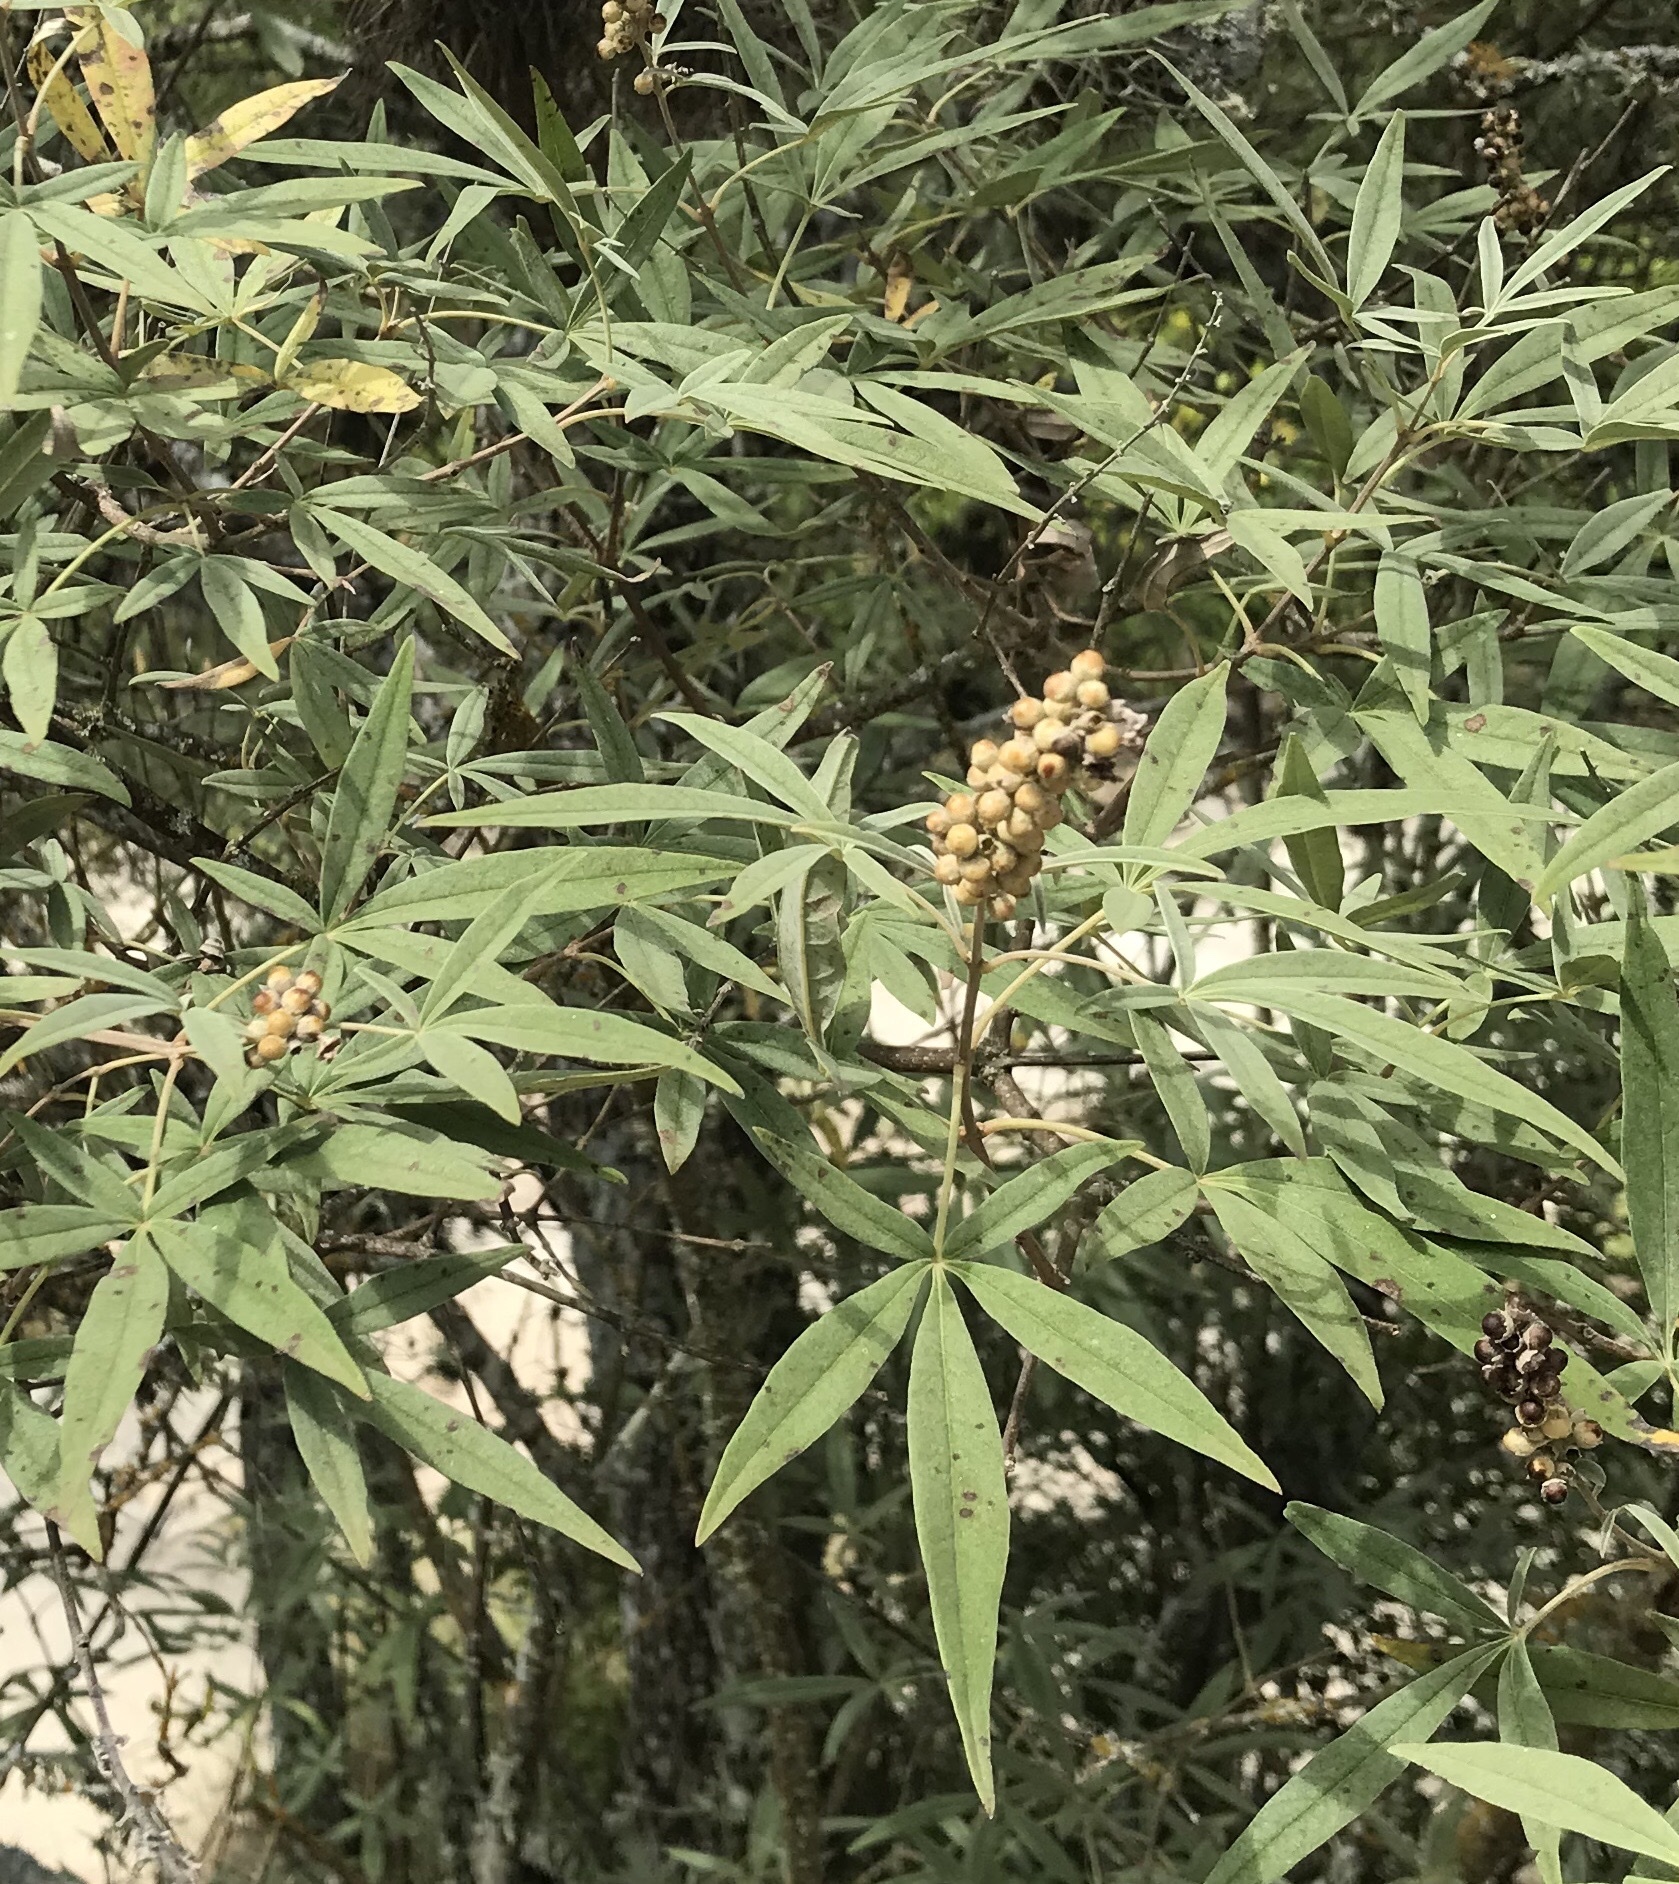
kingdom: Plantae
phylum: Tracheophyta
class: Magnoliopsida
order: Lamiales
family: Lamiaceae
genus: Vitex
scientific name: Vitex agnus-castus
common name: Chasteberry
